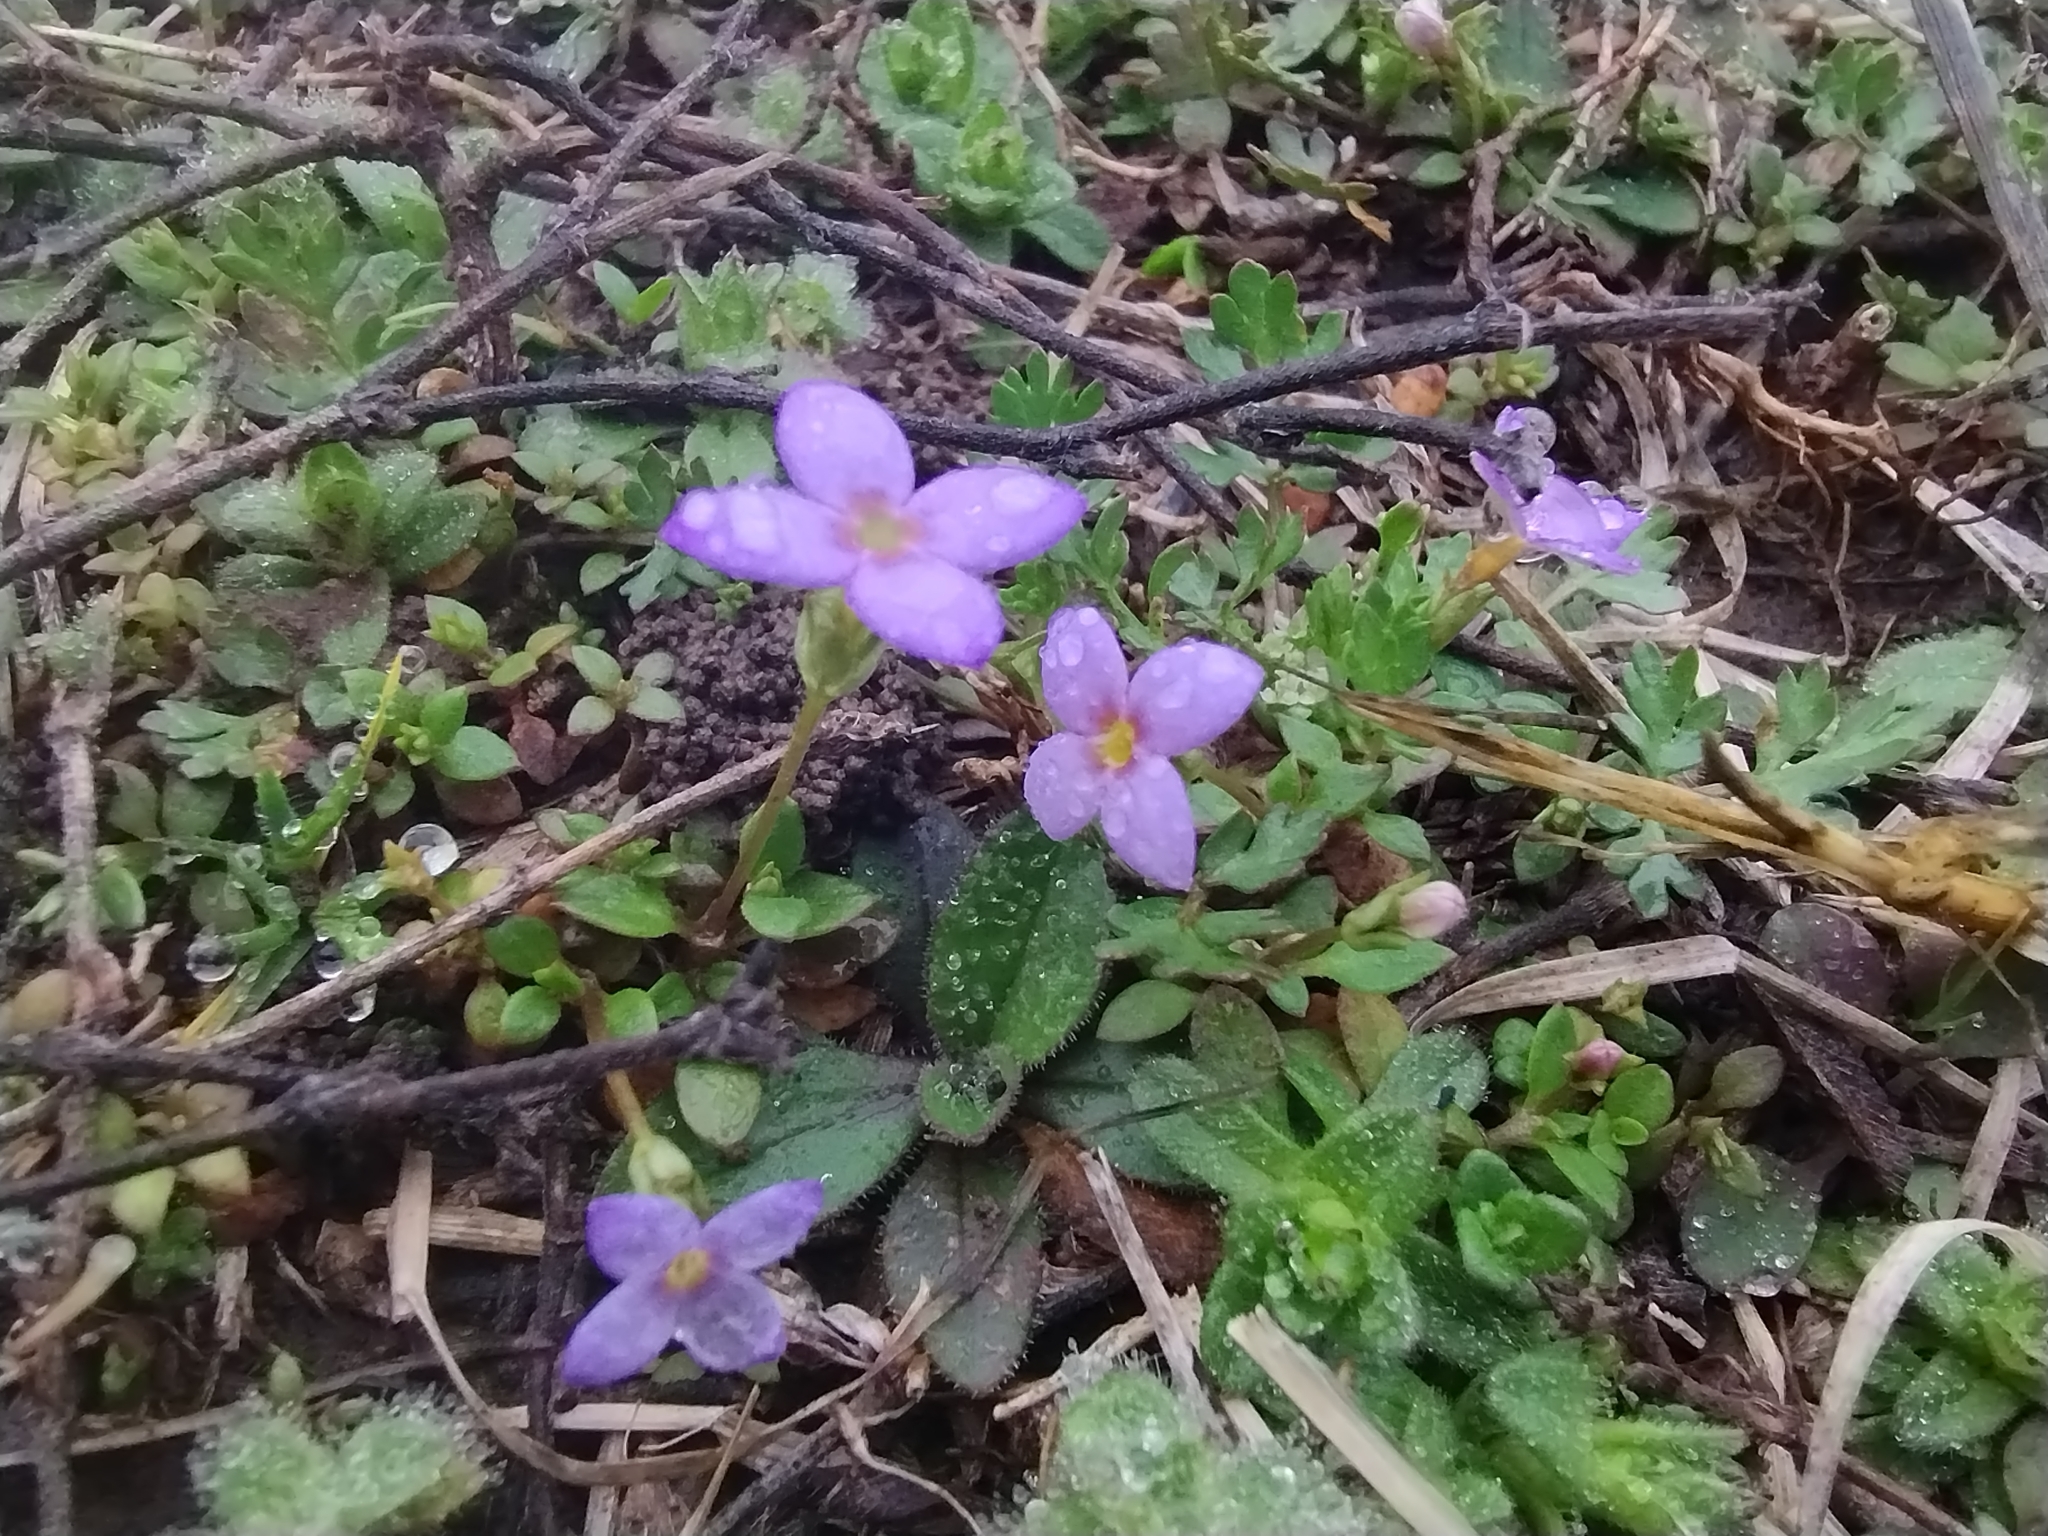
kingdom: Plantae
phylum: Tracheophyta
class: Magnoliopsida
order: Gentianales
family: Rubiaceae
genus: Houstonia
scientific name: Houstonia pusilla
